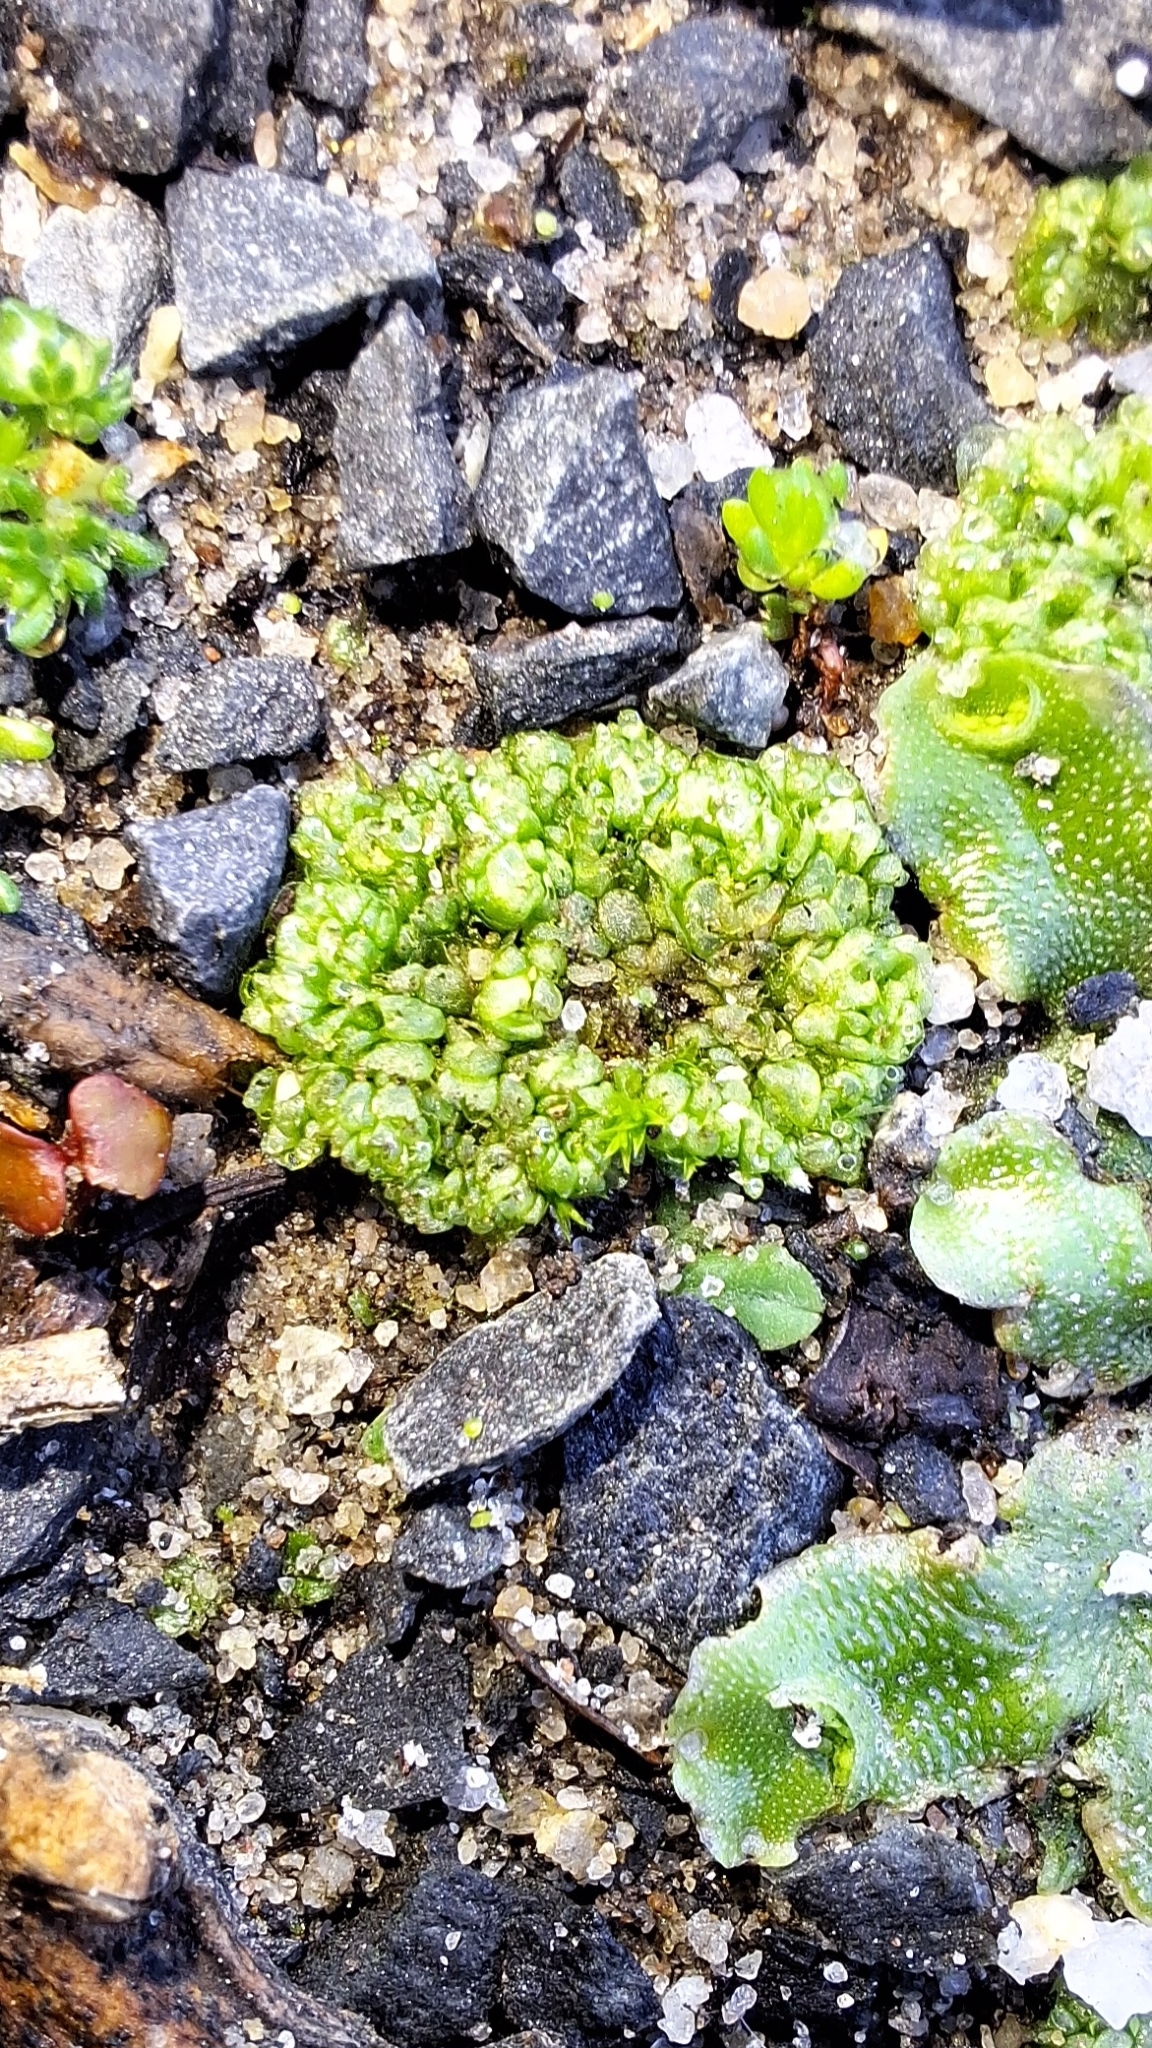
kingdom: Plantae
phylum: Marchantiophyta
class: Marchantiopsida
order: Sphaerocarpales
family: Sphaerocarpaceae
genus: Sphaerocarpos
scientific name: Sphaerocarpos texanus
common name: Texas balloonwort
